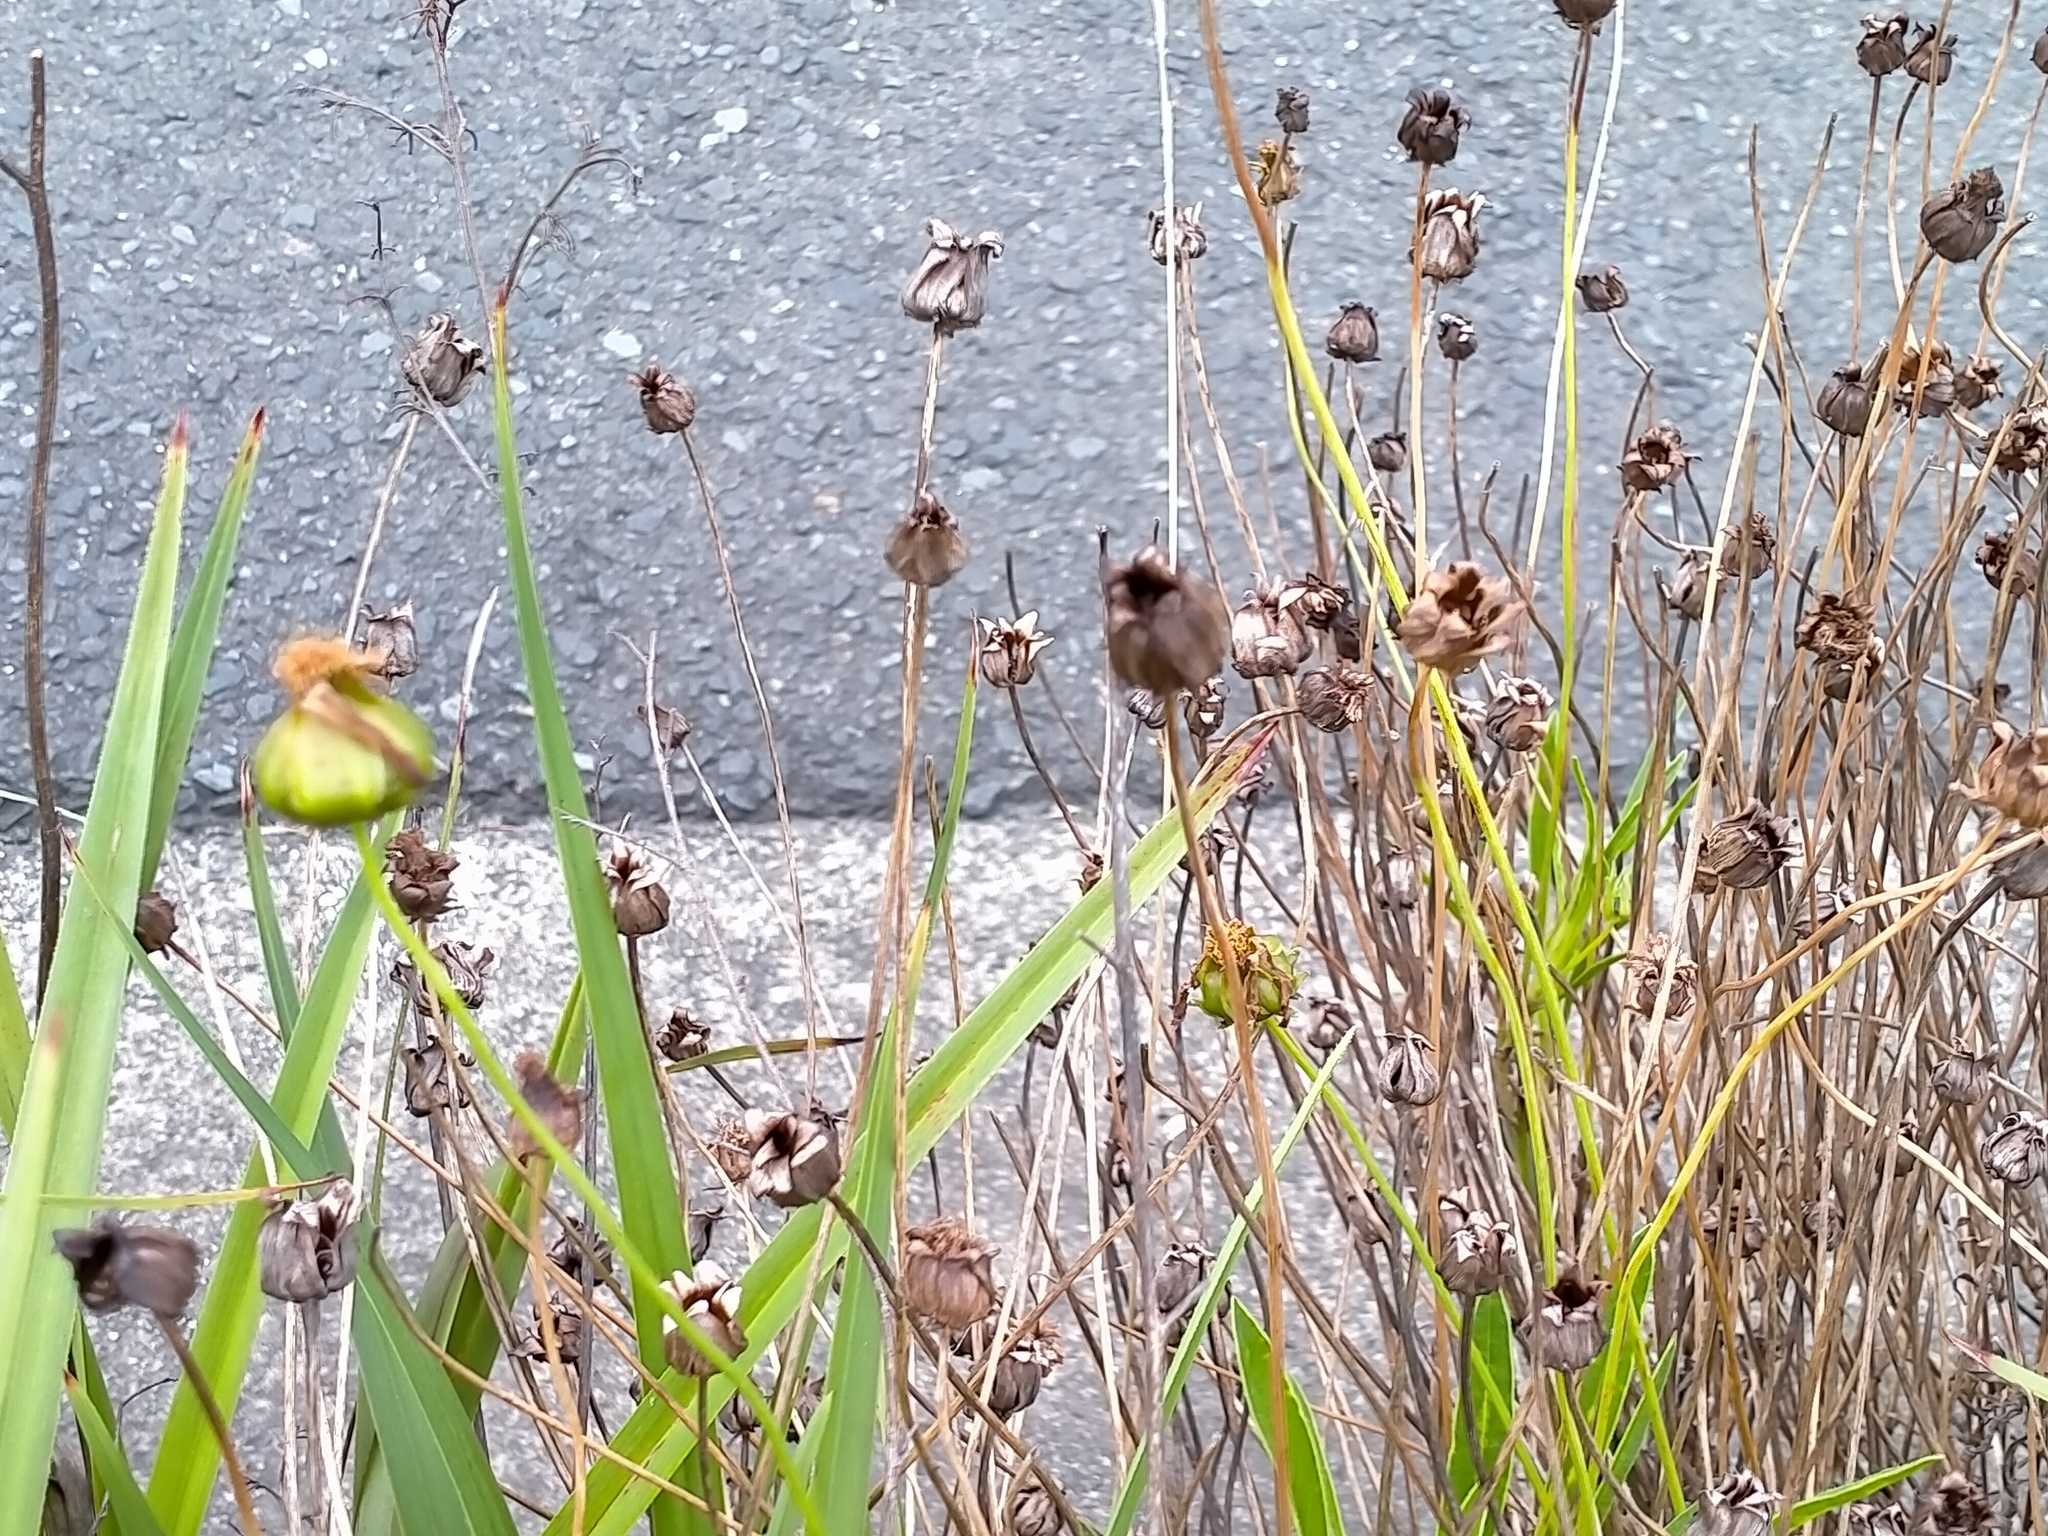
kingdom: Plantae
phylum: Tracheophyta
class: Magnoliopsida
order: Asterales
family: Asteraceae
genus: Coreopsis
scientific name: Coreopsis lanceolata
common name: Garden coreopsis
